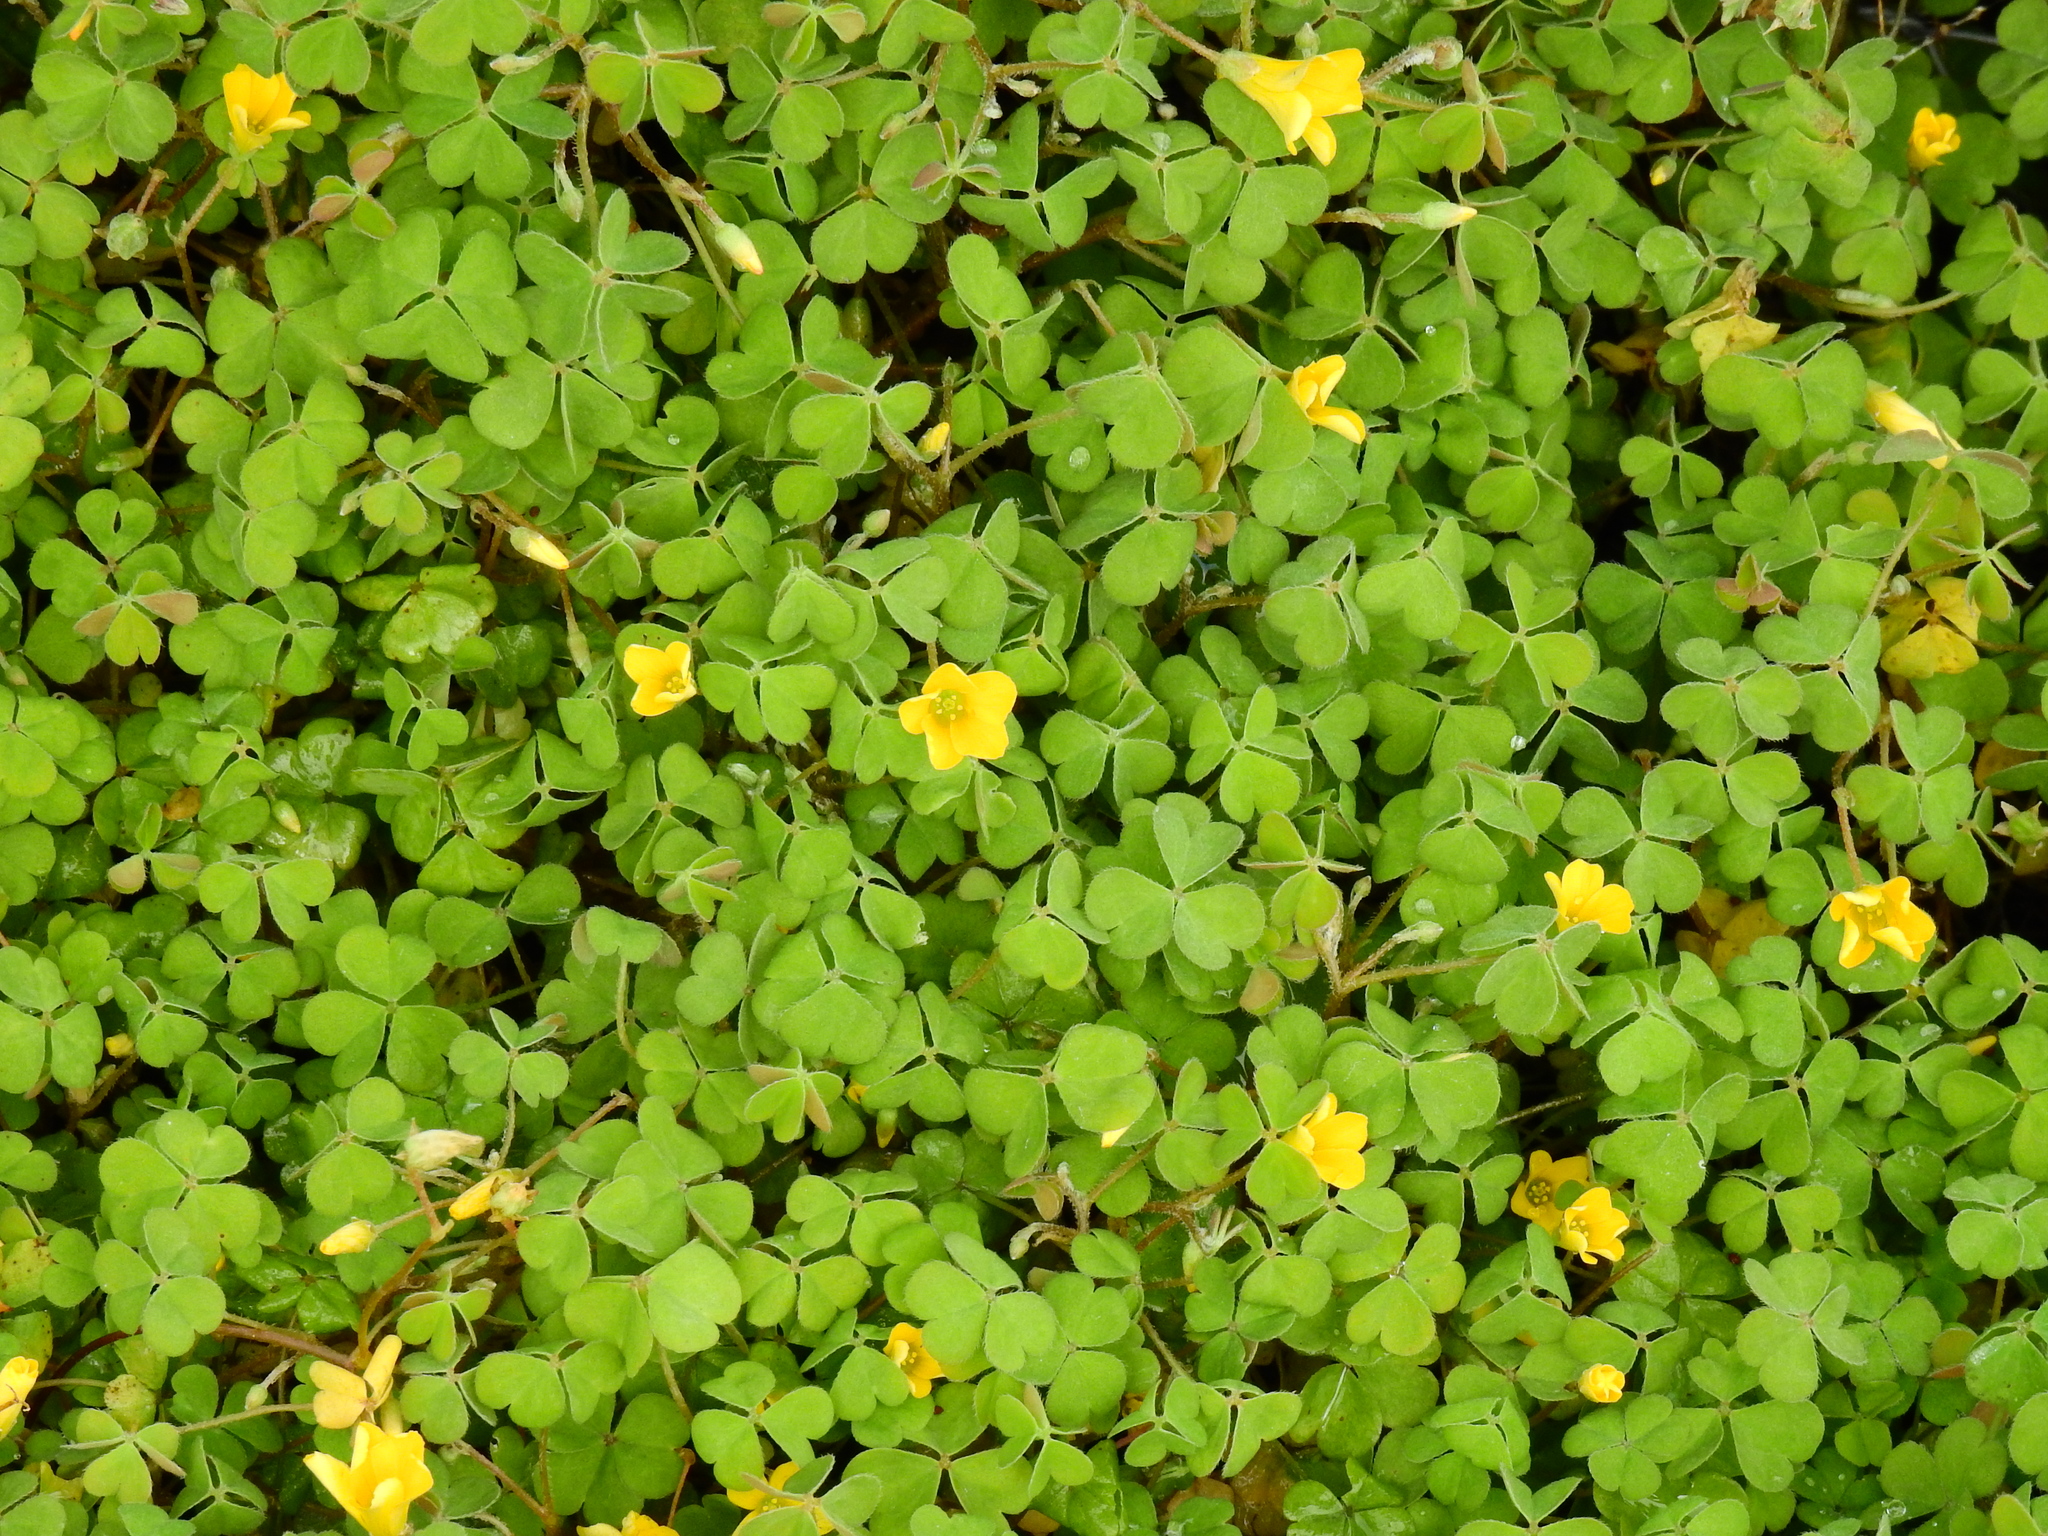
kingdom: Plantae
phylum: Tracheophyta
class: Magnoliopsida
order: Oxalidales
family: Oxalidaceae
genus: Oxalis
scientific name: Oxalis exilis
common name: Least yellow-sorrel
